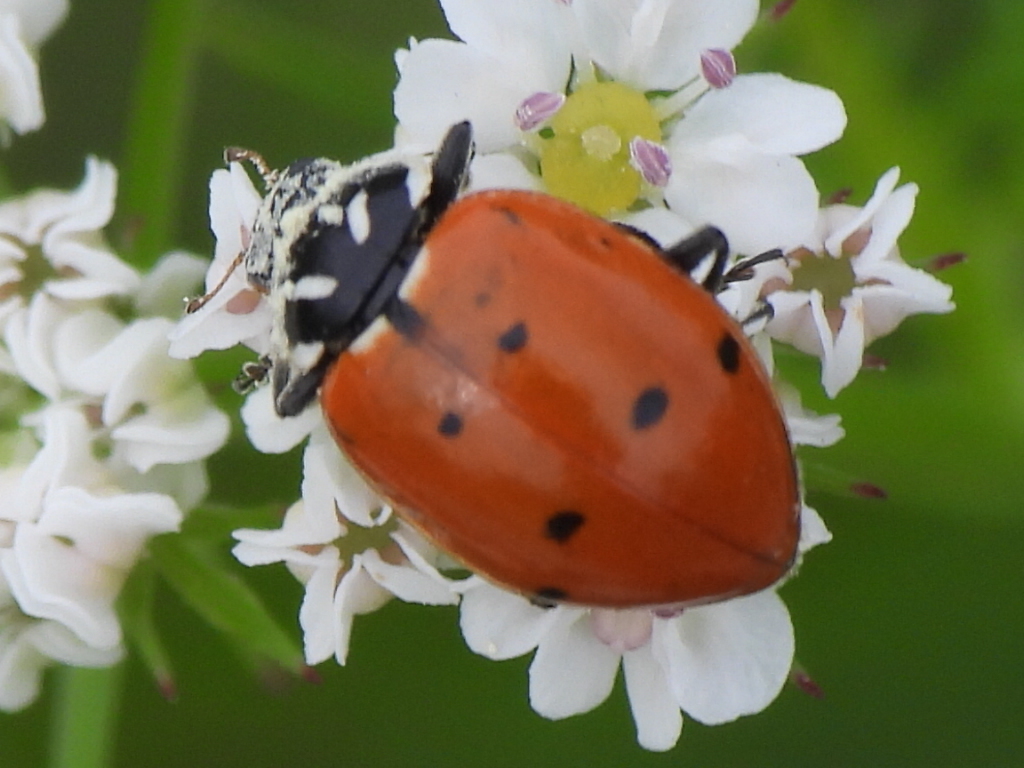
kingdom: Animalia
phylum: Arthropoda
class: Insecta
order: Coleoptera
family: Coccinellidae
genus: Hippodamia
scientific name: Hippodamia convergens
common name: Convergent lady beetle
